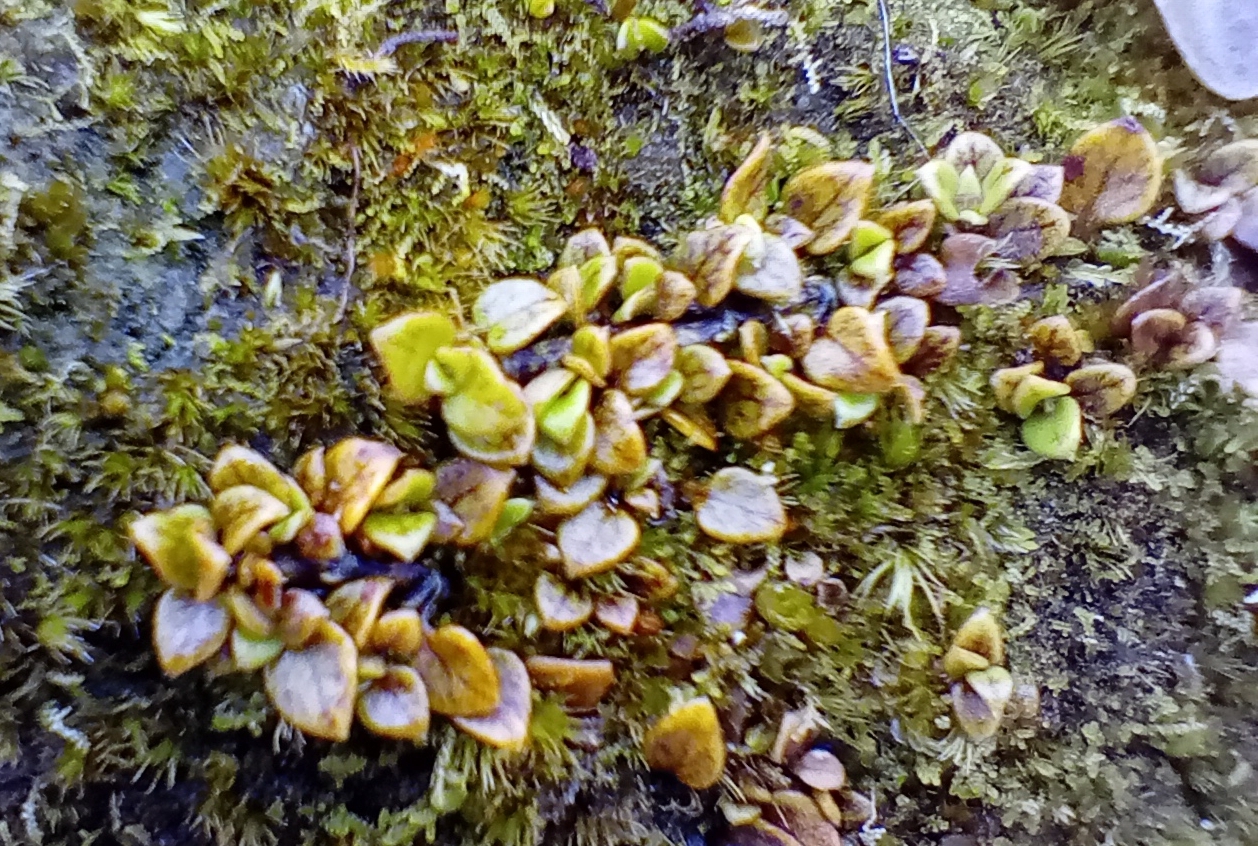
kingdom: Plantae
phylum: Tracheophyta
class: Magnoliopsida
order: Gentianales
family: Rubiaceae
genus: Nertera
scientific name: Nertera granadensis
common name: Beadplant
